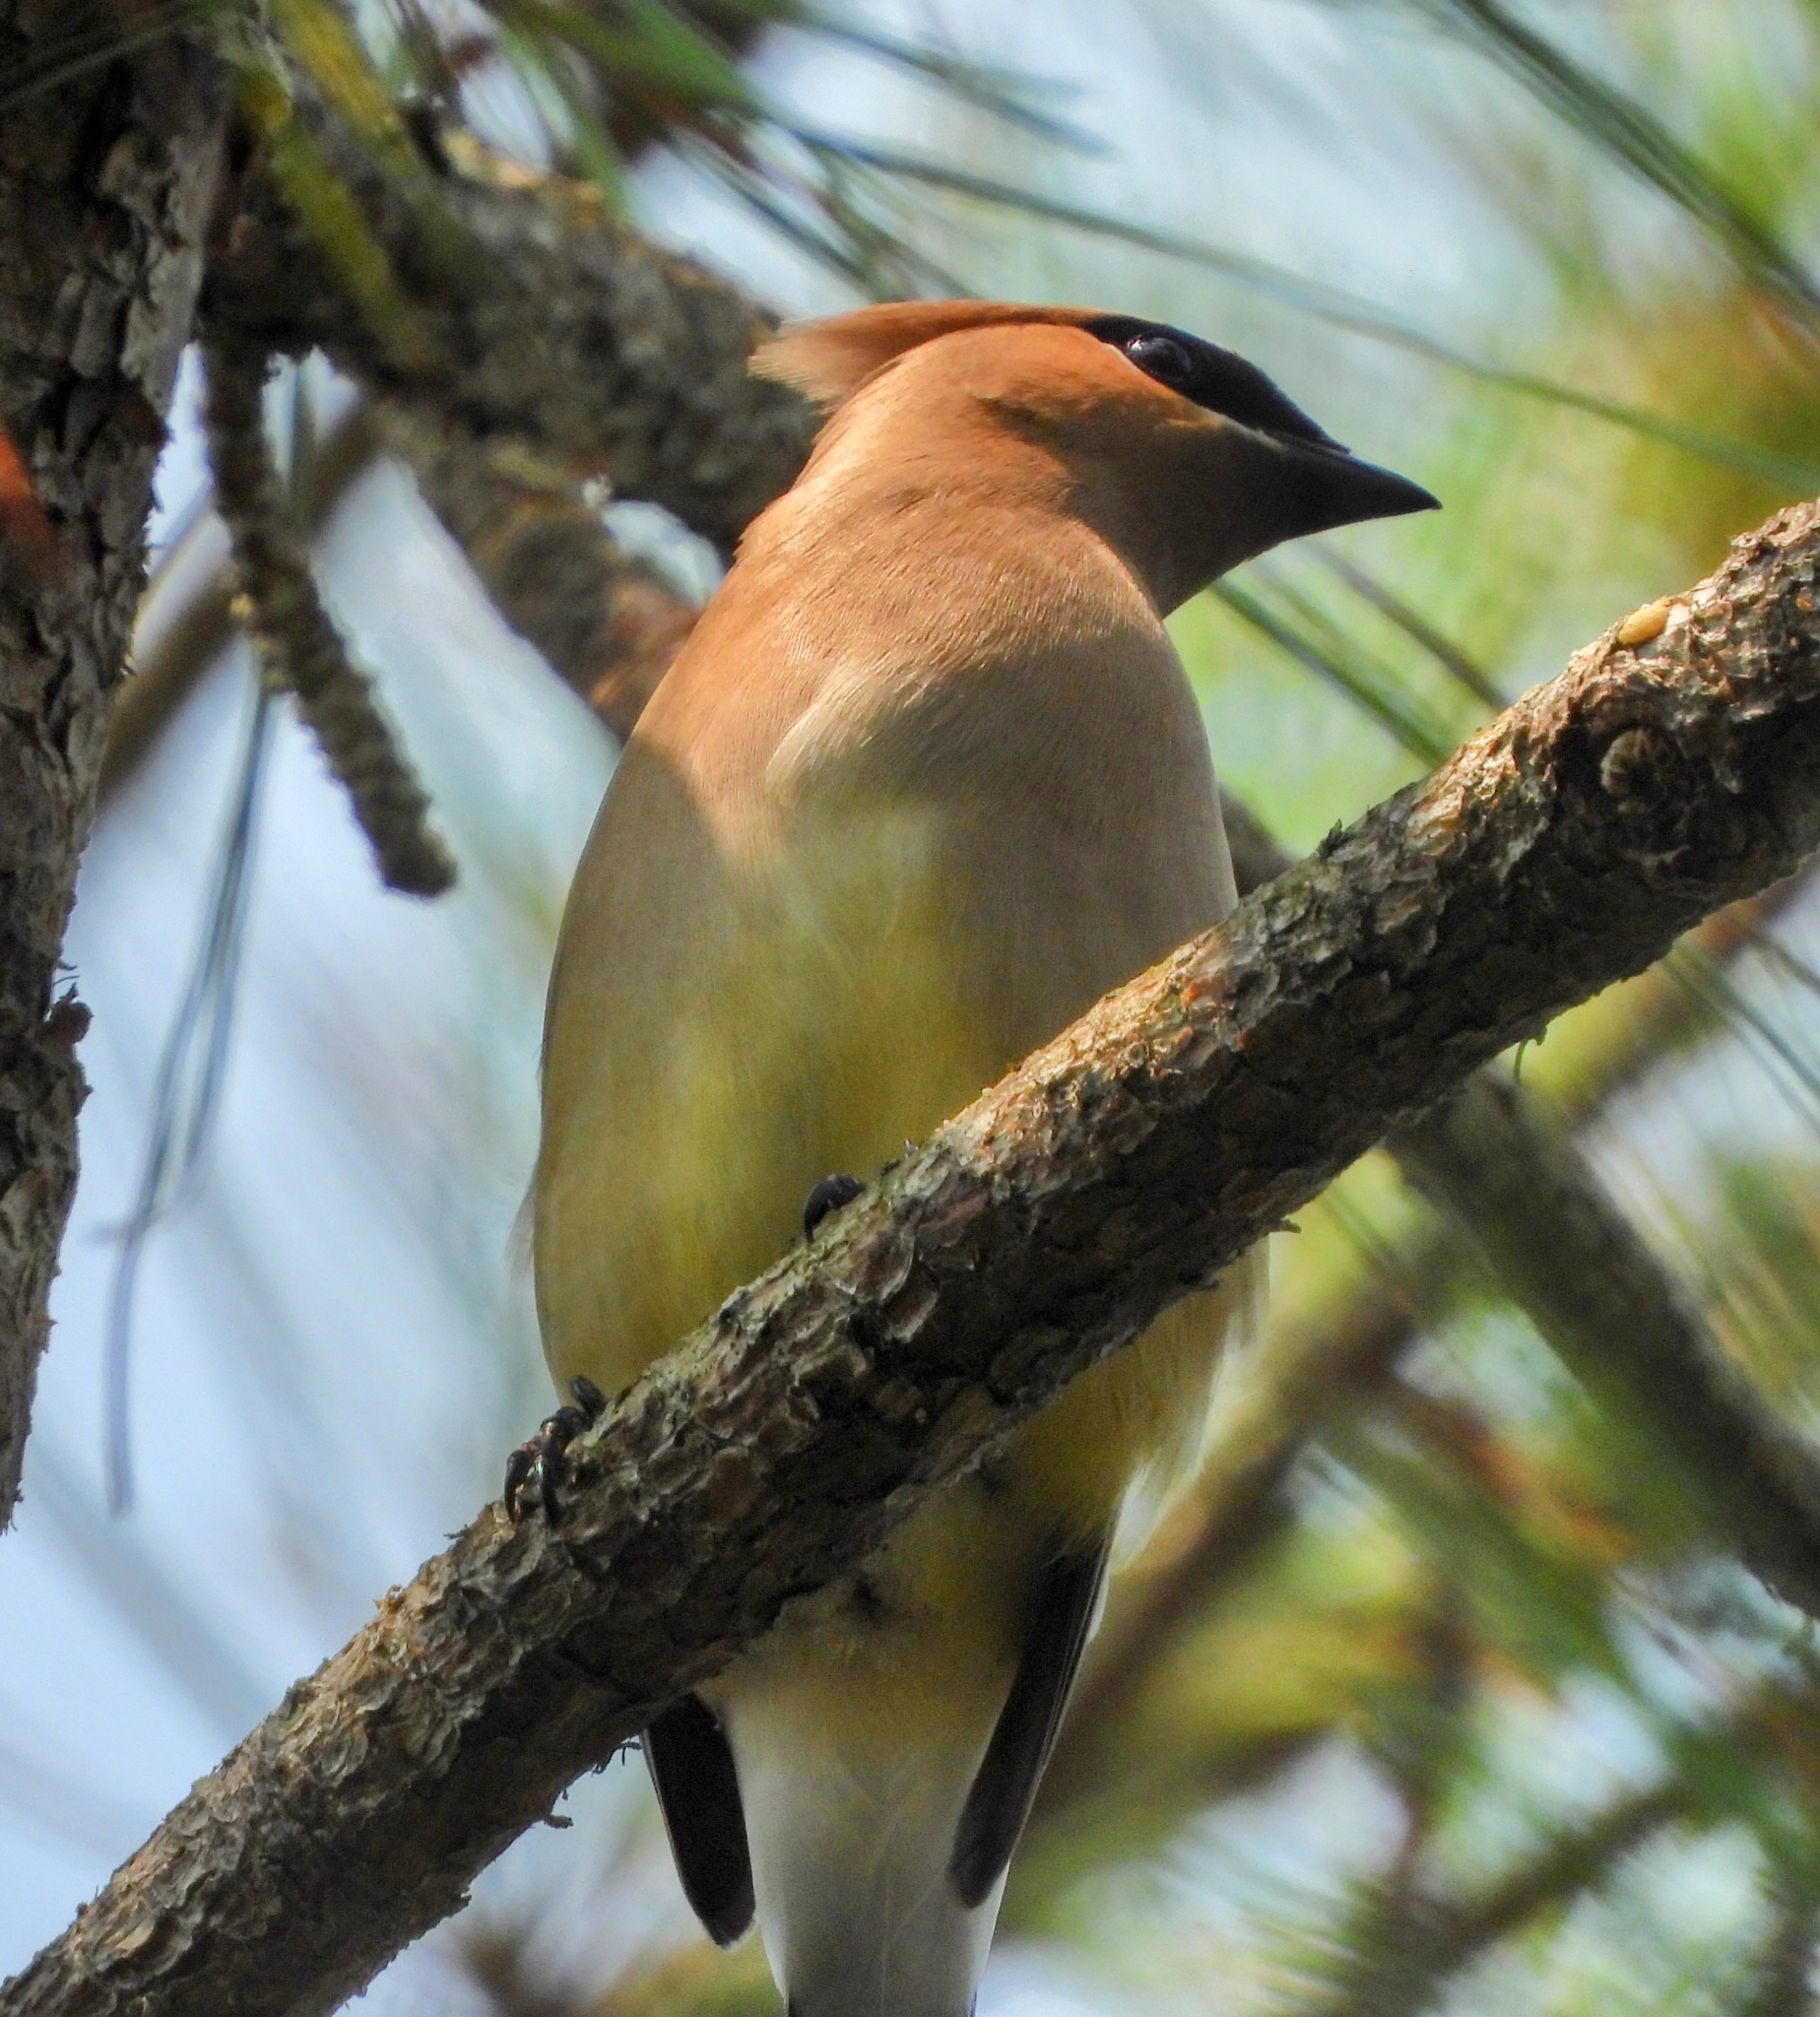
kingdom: Animalia
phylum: Chordata
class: Aves
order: Passeriformes
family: Bombycillidae
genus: Bombycilla
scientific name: Bombycilla cedrorum
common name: Cedar waxwing
